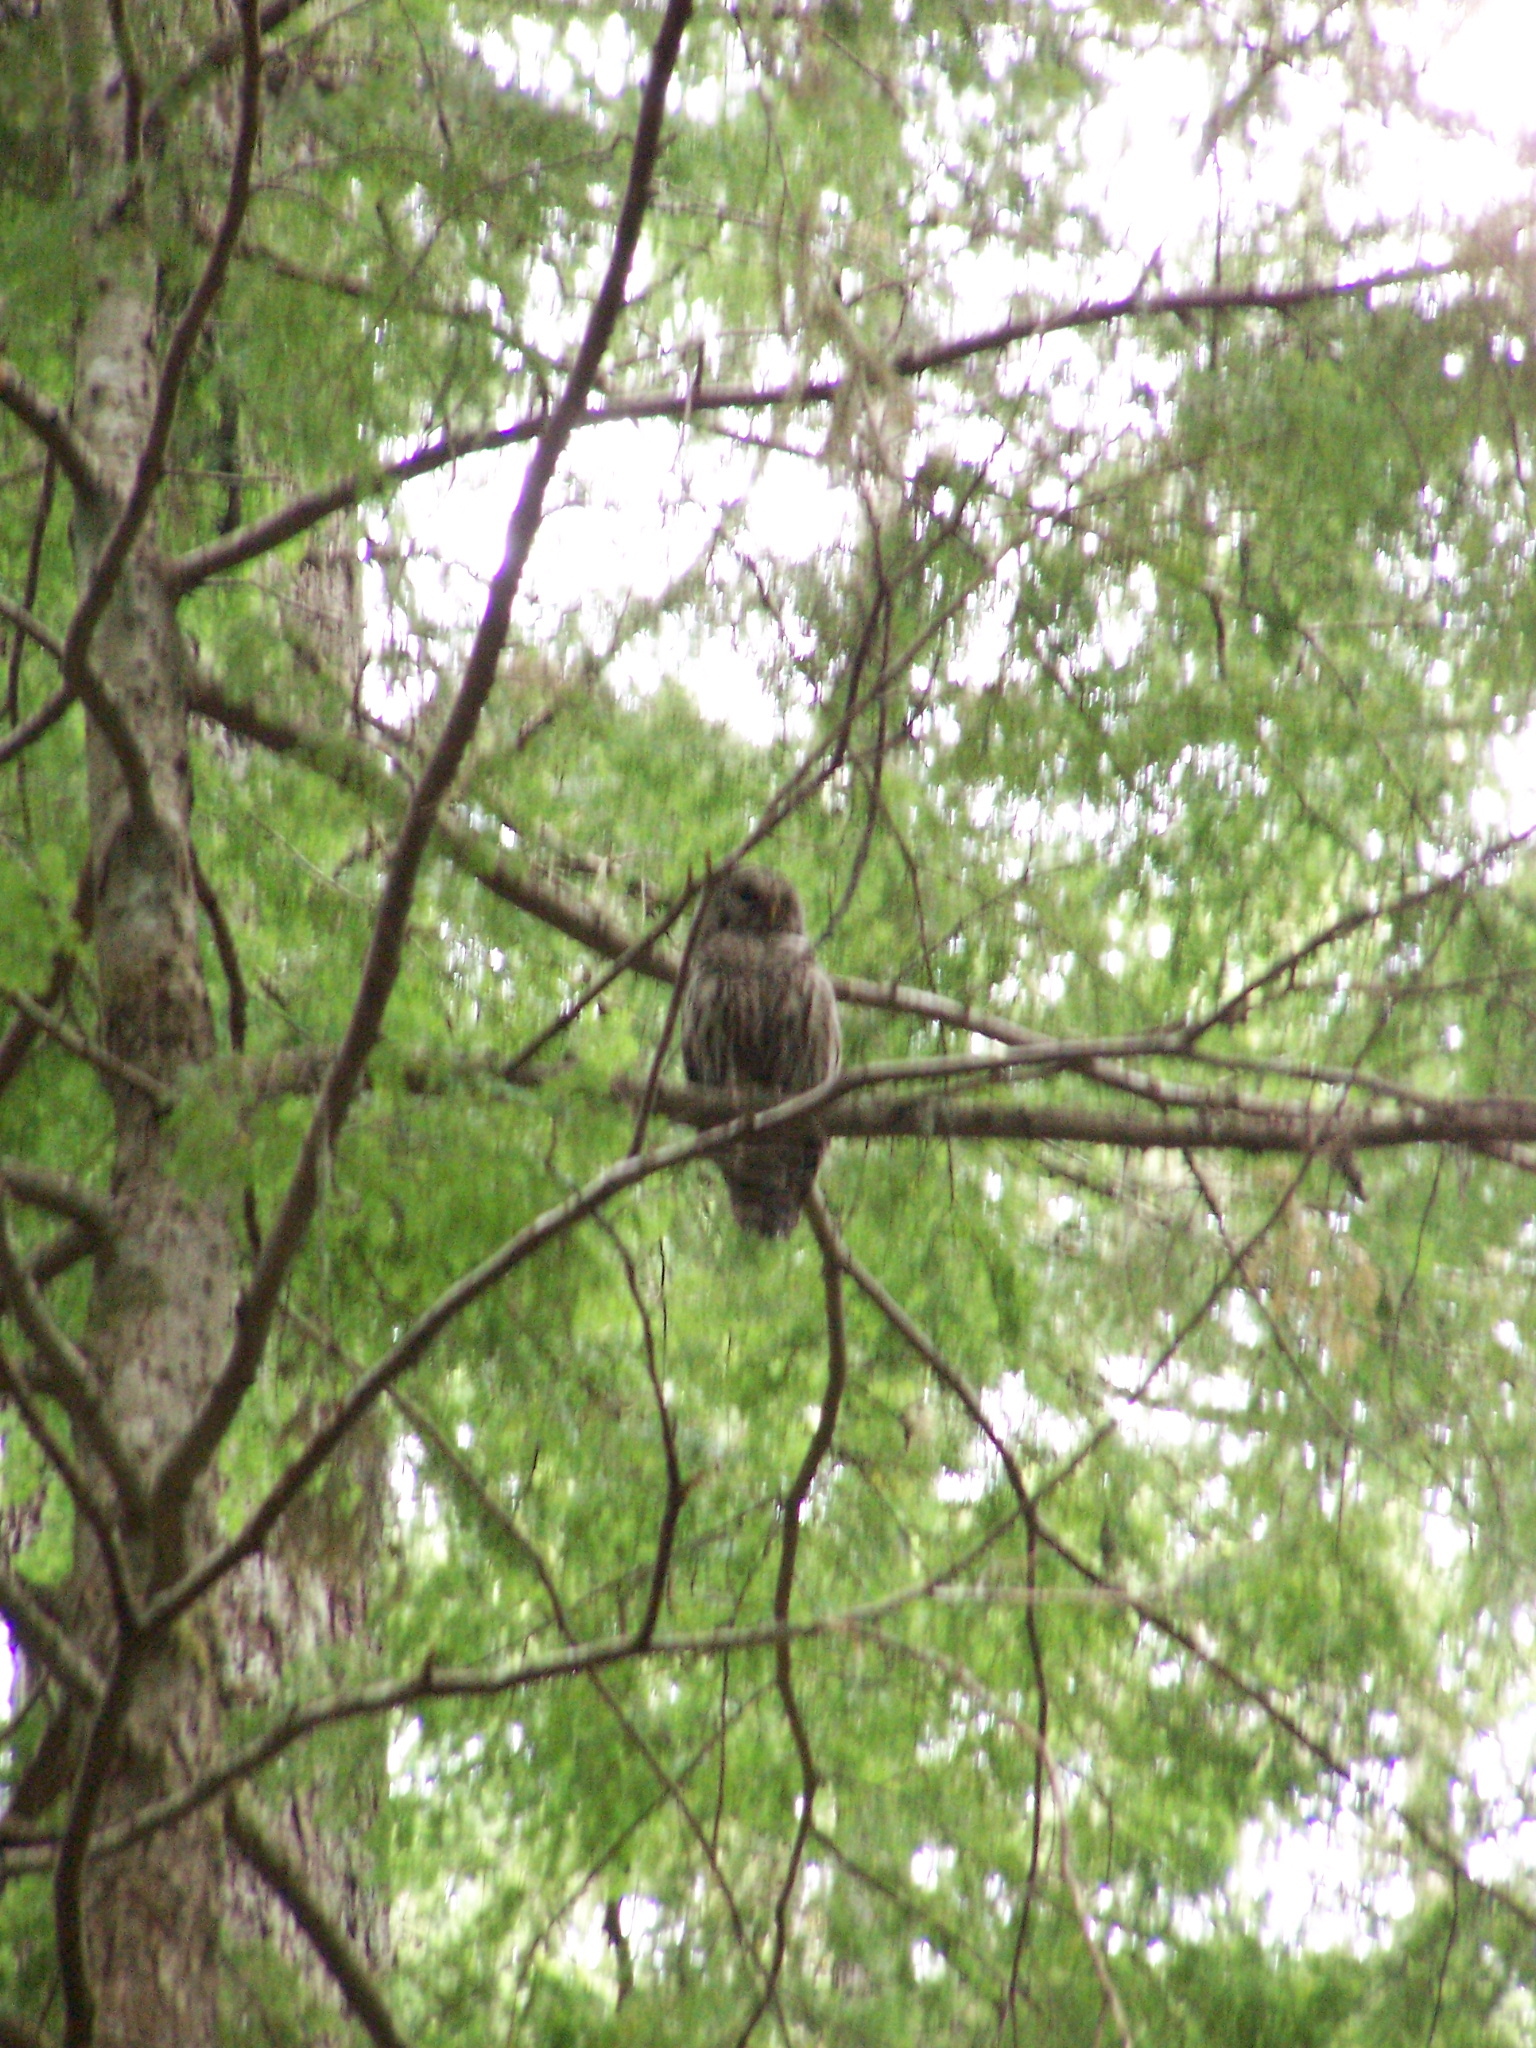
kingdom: Animalia
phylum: Chordata
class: Aves
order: Strigiformes
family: Strigidae
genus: Strix
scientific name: Strix varia
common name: Barred owl
